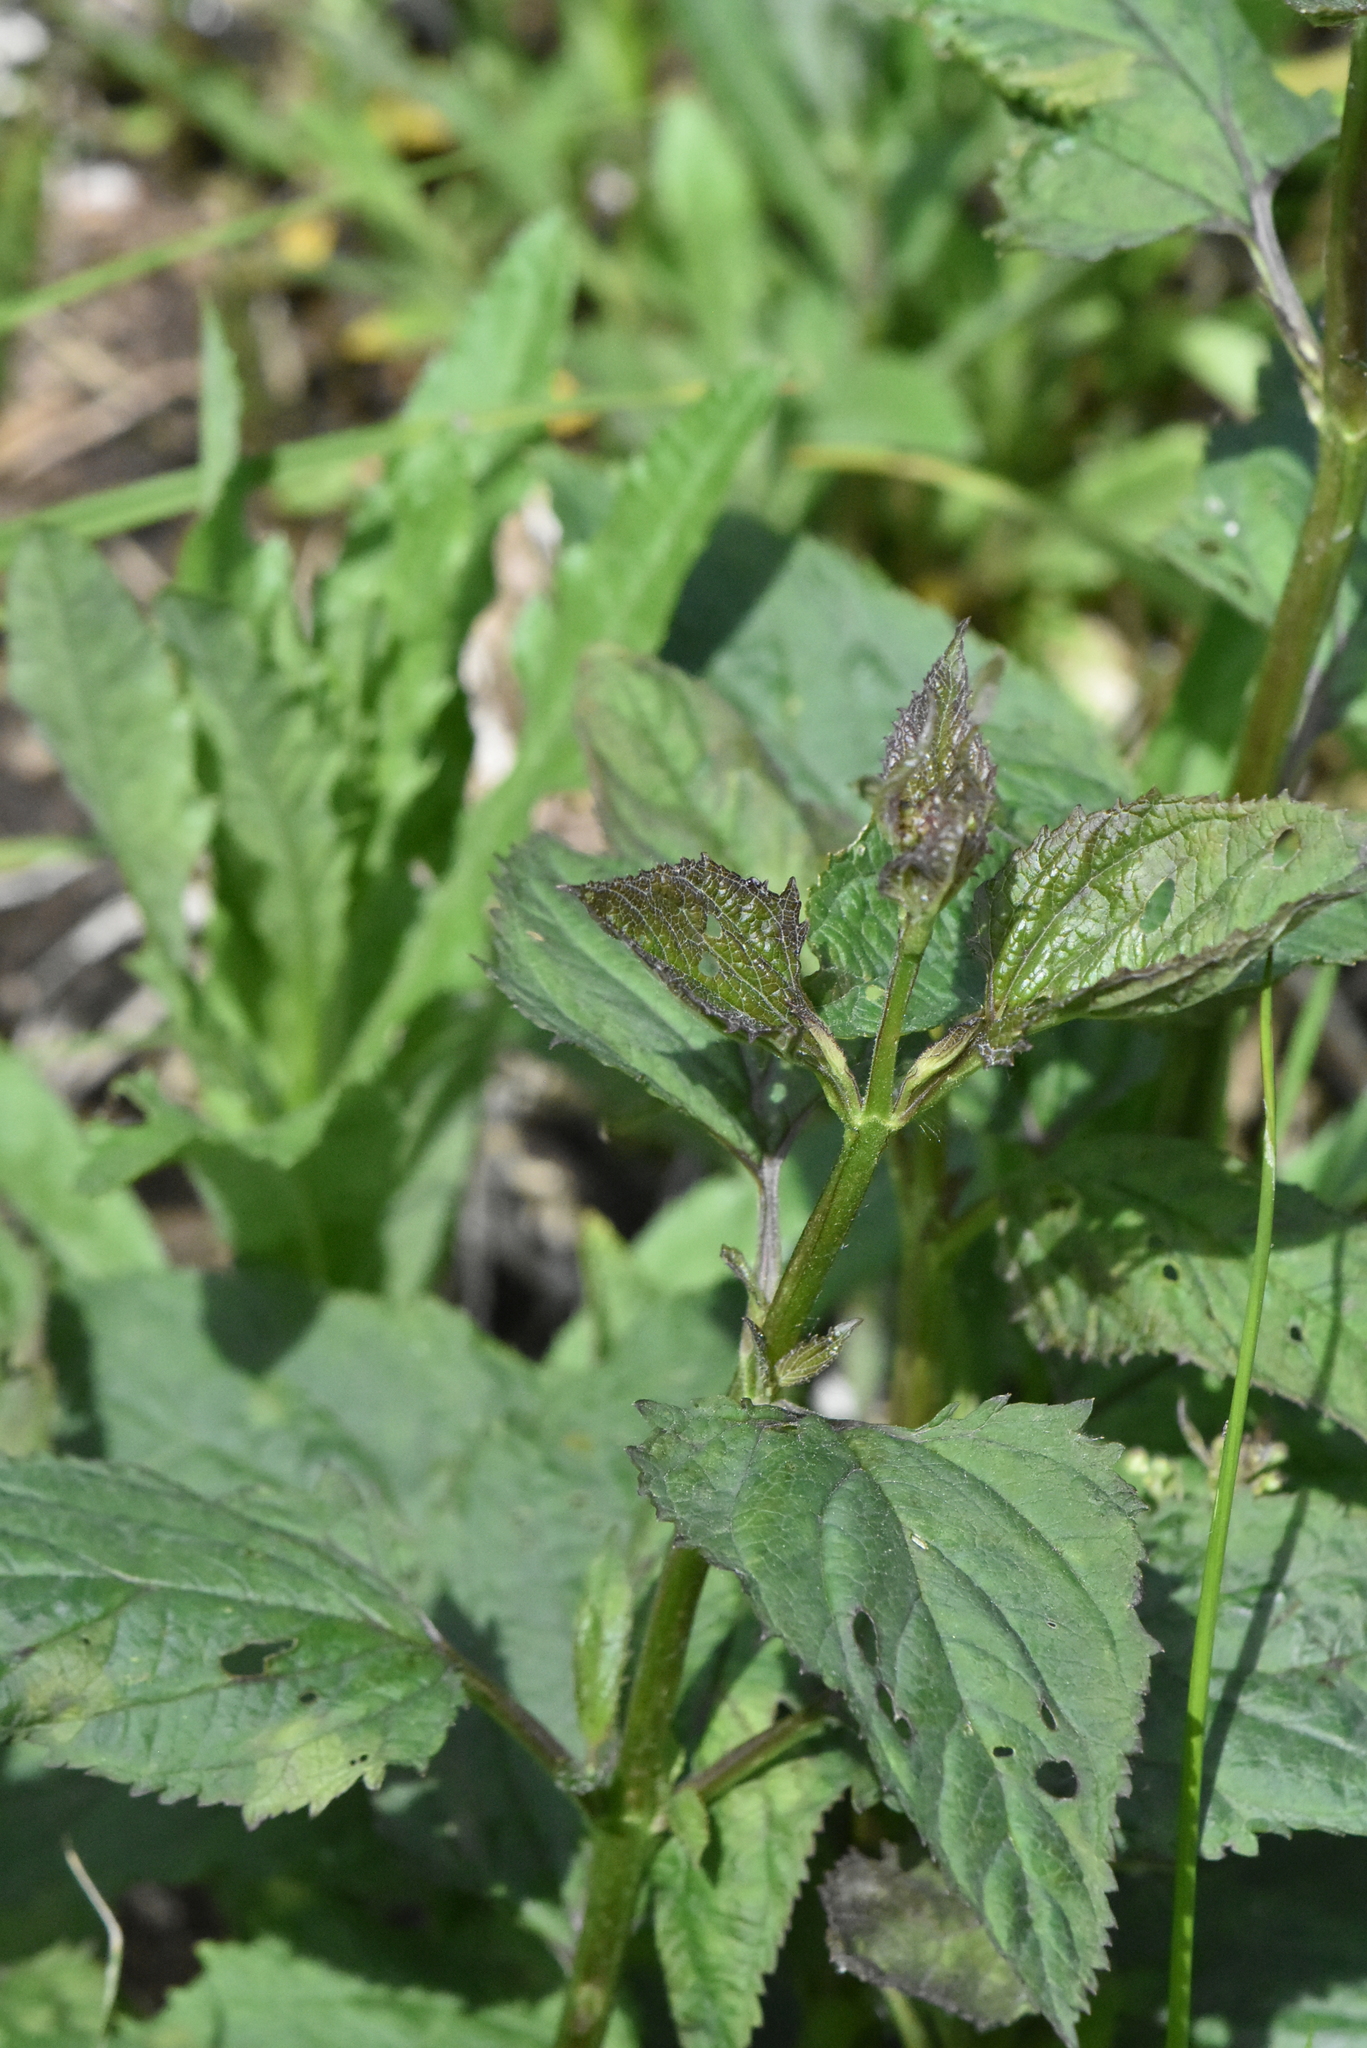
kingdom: Plantae
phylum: Tracheophyta
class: Magnoliopsida
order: Lamiales
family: Scrophulariaceae
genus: Scrophularia
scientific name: Scrophularia nodosa
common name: Common figwort
